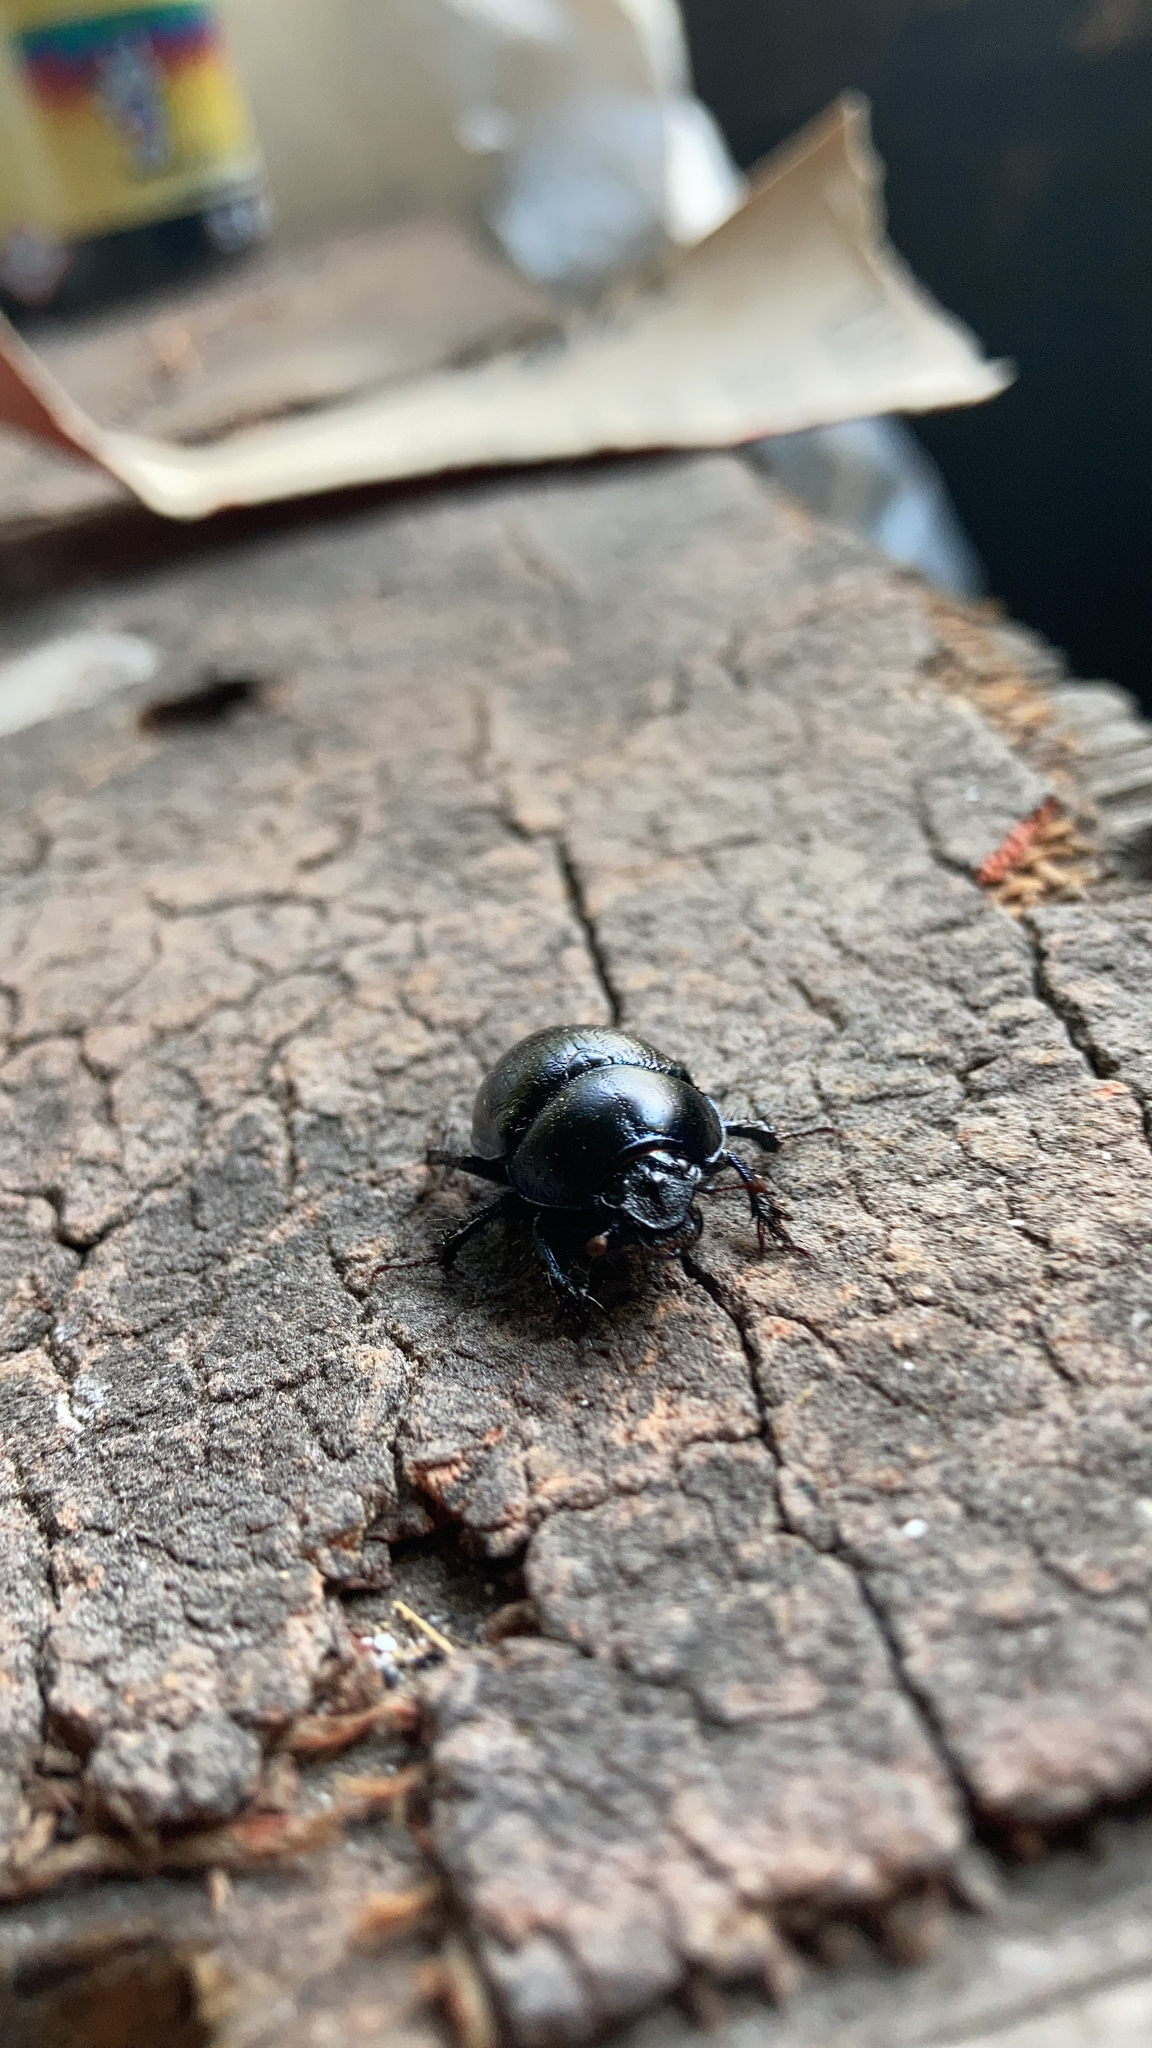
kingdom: Animalia
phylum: Arthropoda
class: Insecta
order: Coleoptera
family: Geotrupidae
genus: Anoplotrupes
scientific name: Anoplotrupes stercorosus
